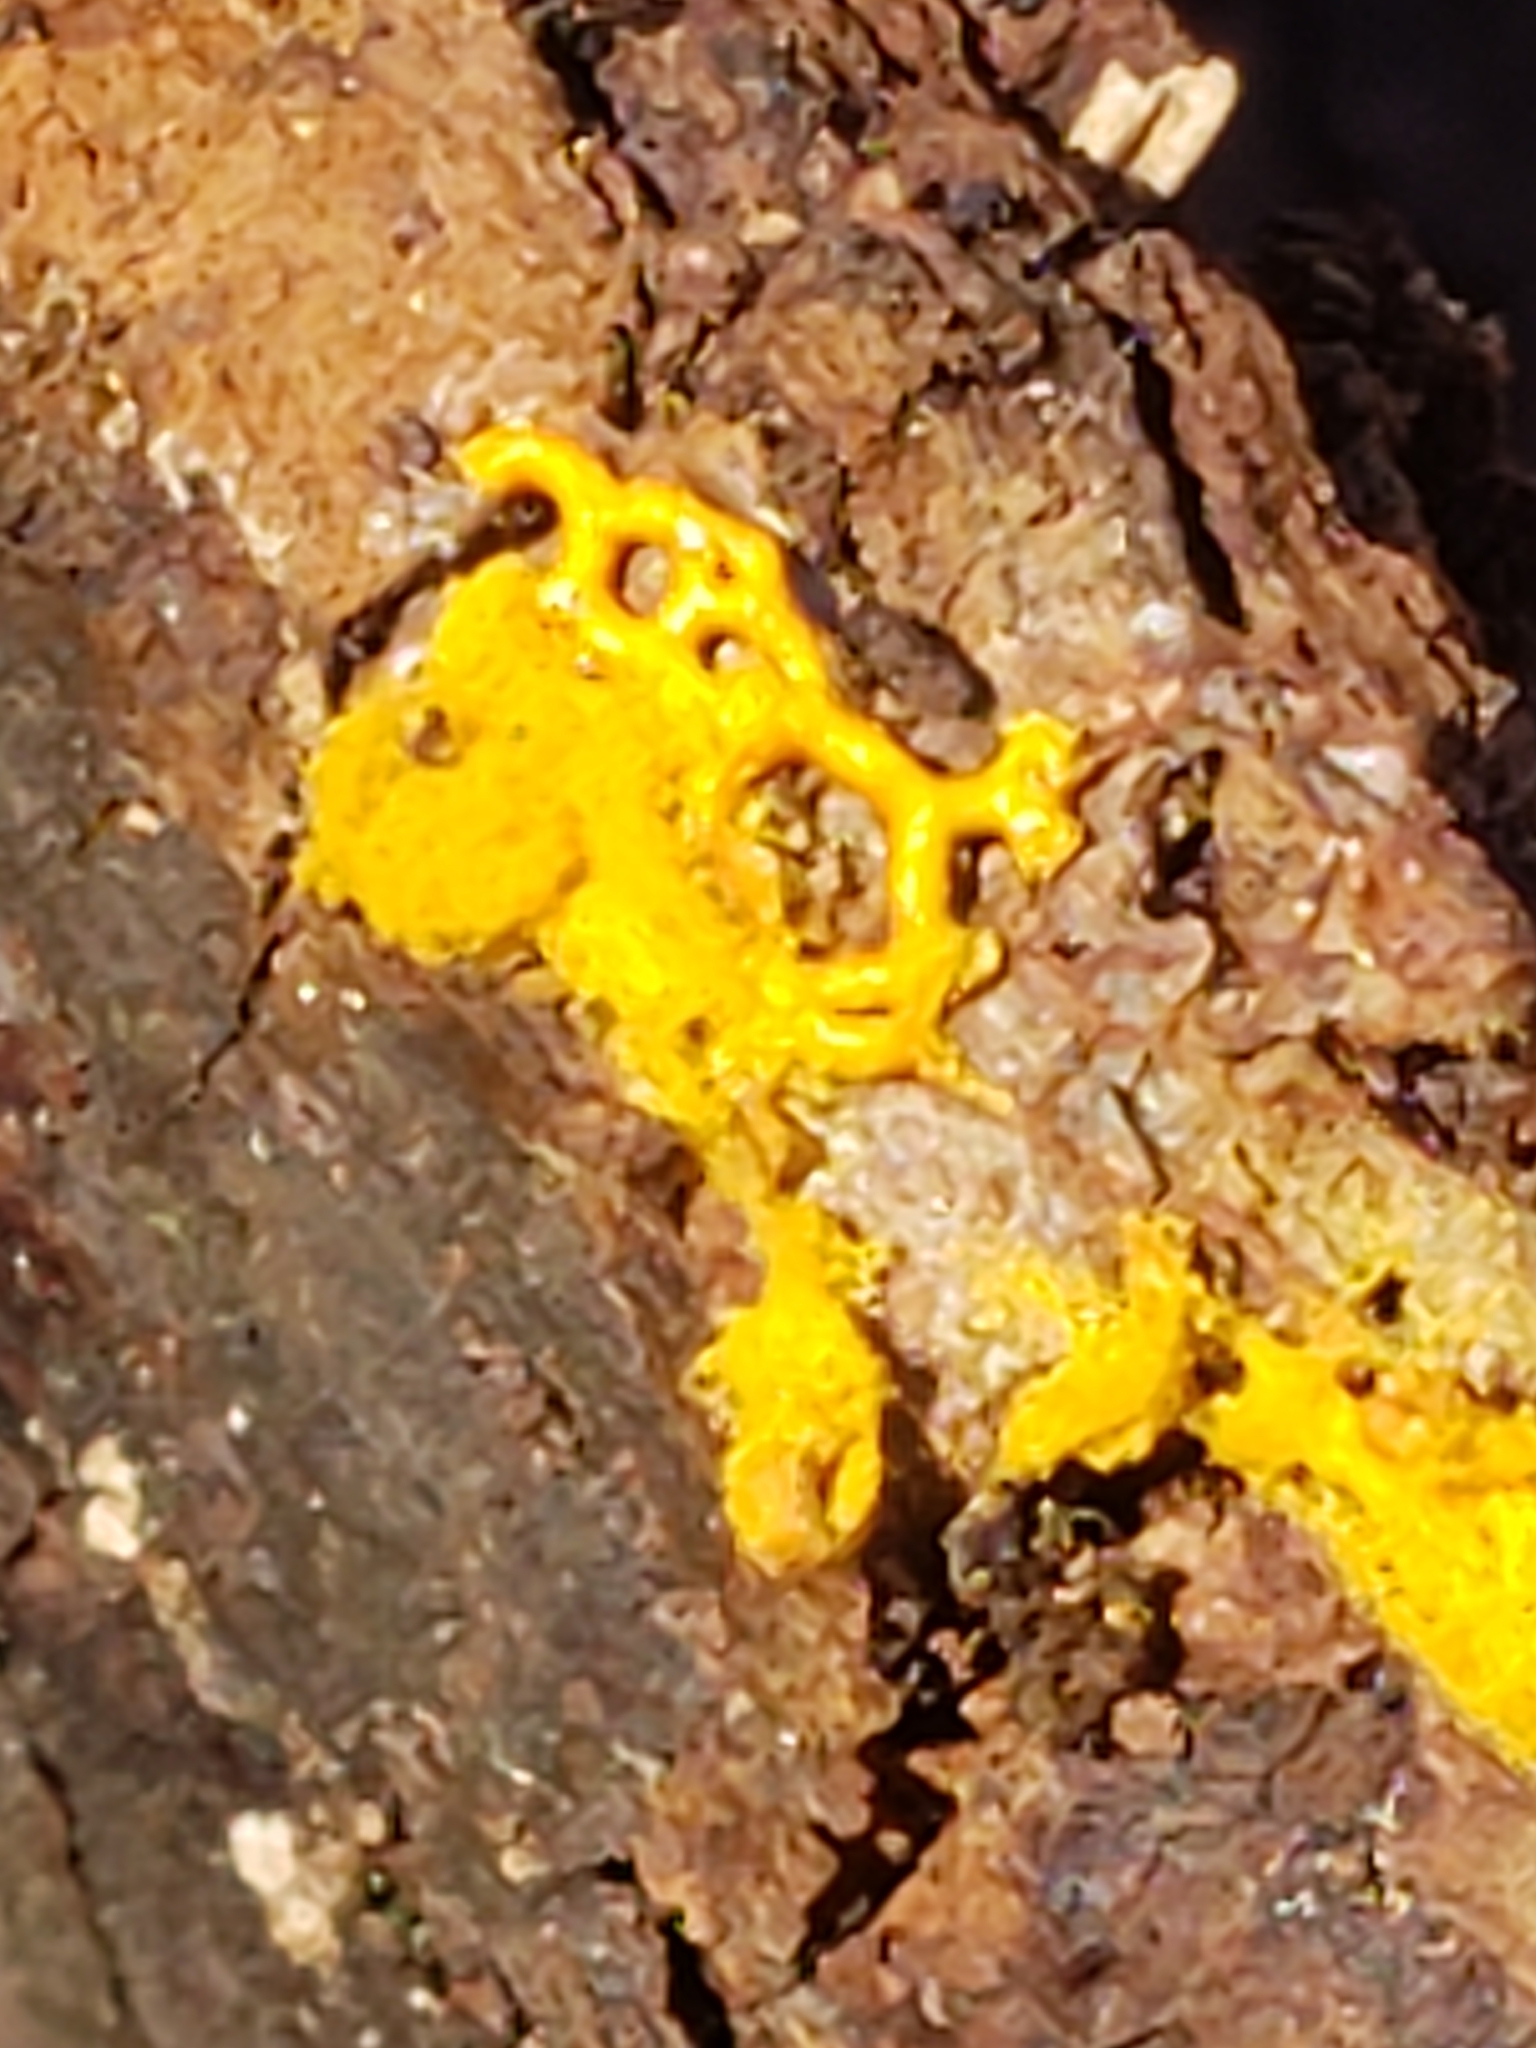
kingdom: Protozoa
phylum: Mycetozoa
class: Myxomycetes
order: Trichiales
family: Arcyriaceae
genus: Hemitrichia
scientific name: Hemitrichia serpula
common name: Pretzel slime mold
